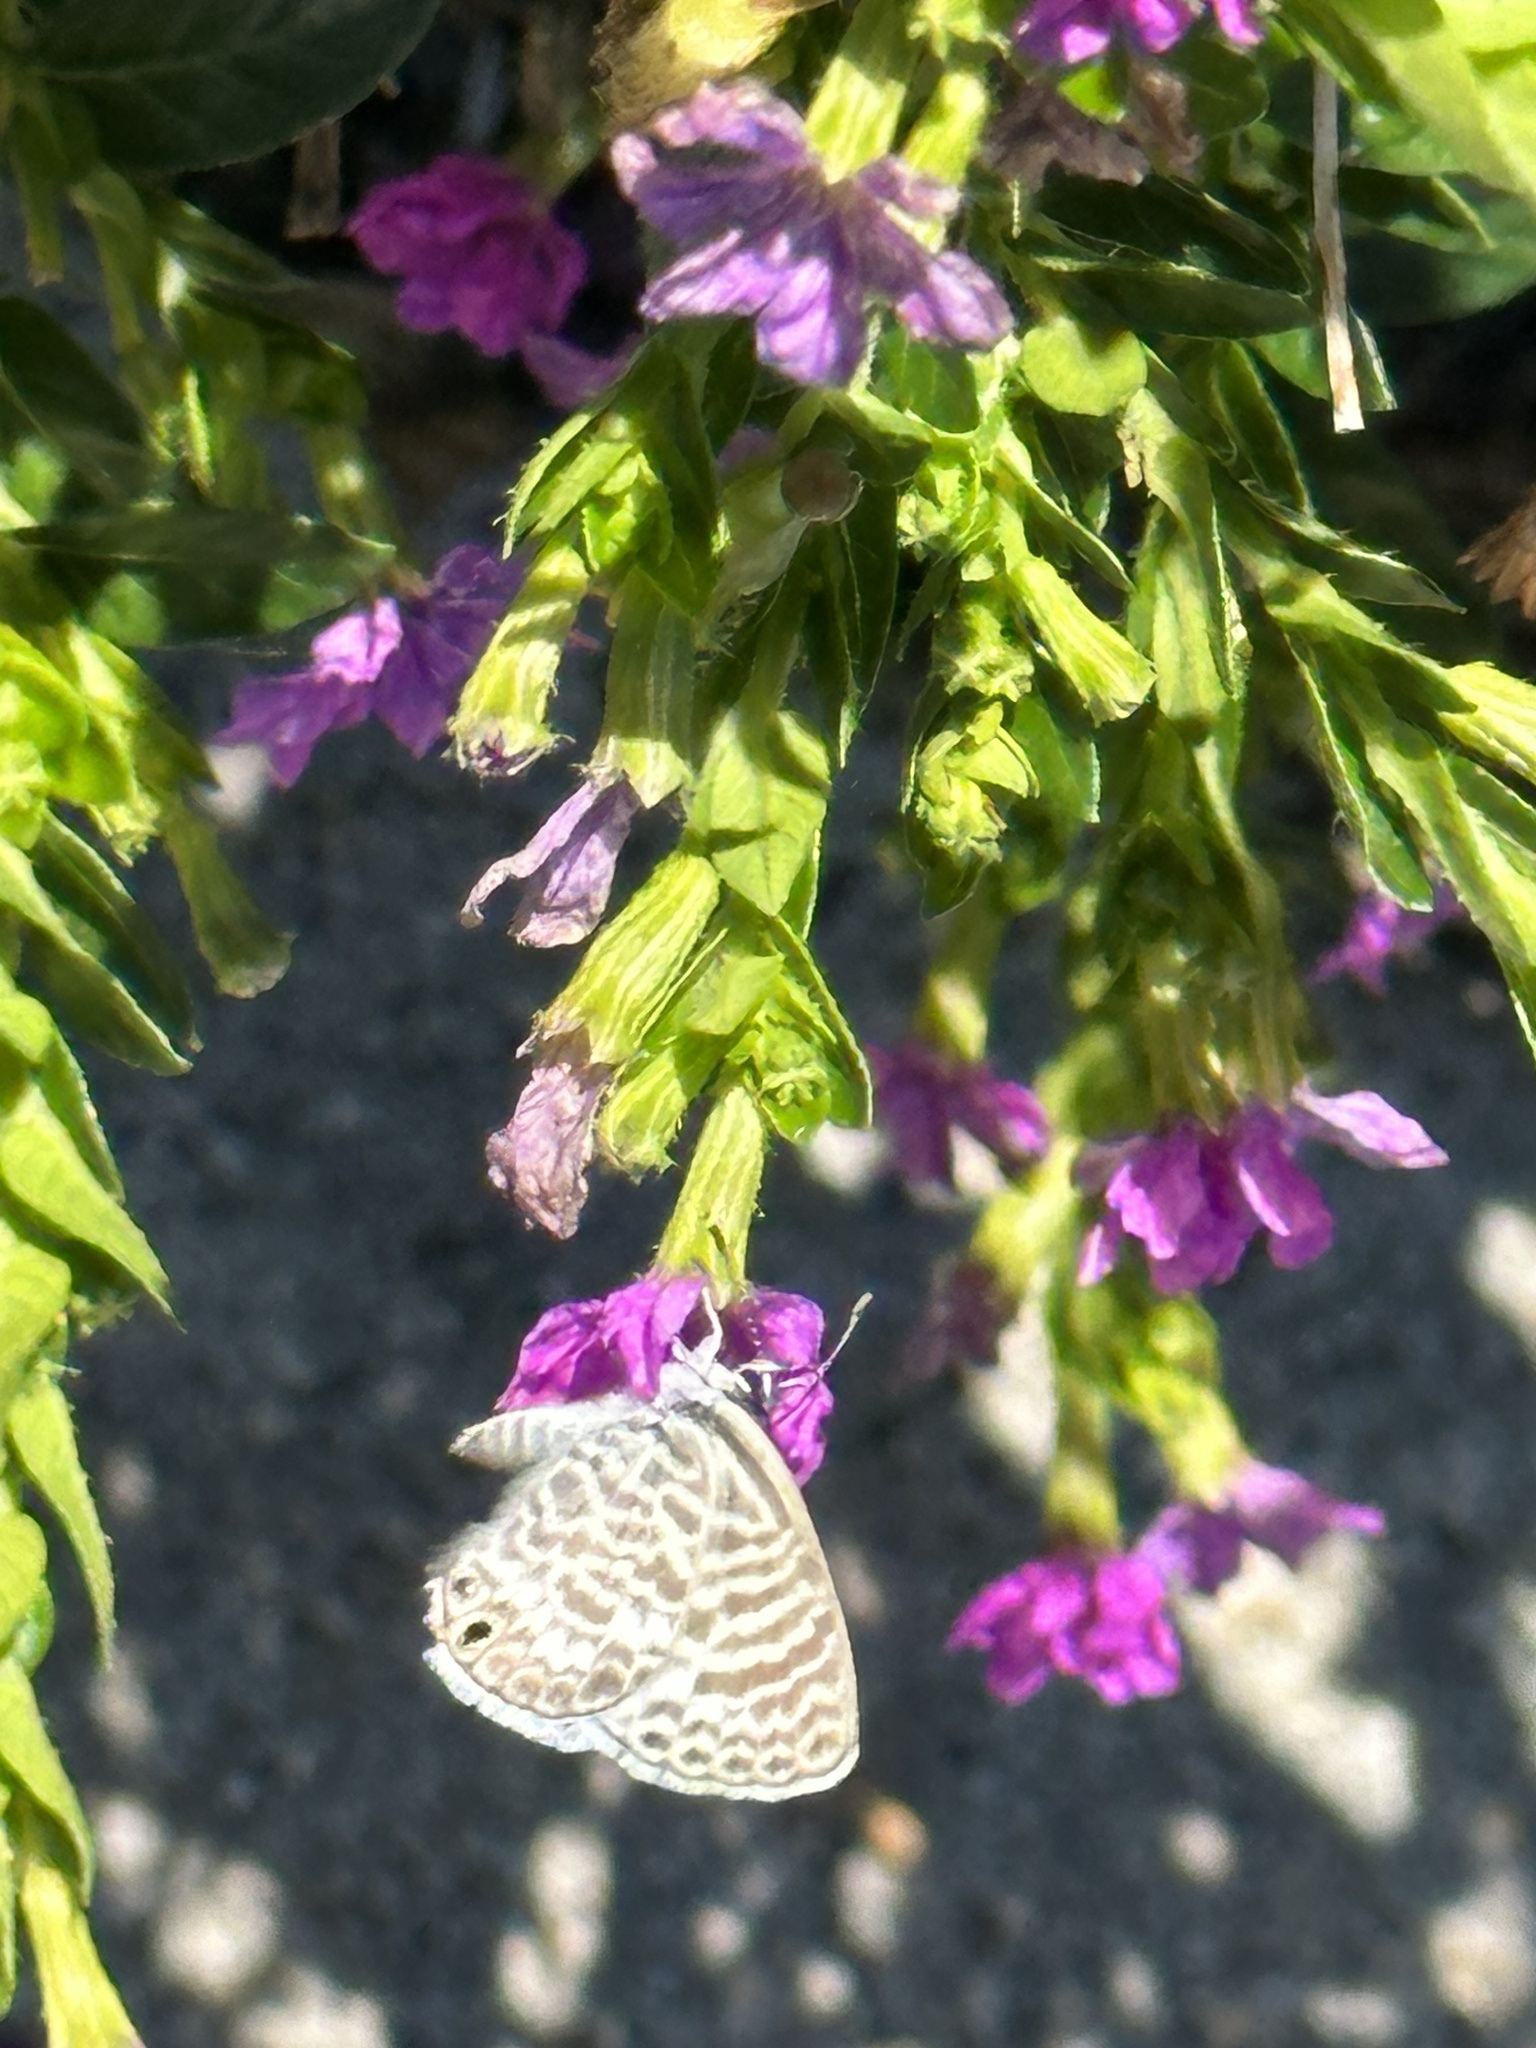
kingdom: Animalia
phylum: Arthropoda
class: Insecta
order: Lepidoptera
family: Lycaenidae
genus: Leptotes
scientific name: Leptotes marina
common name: Marine blue
